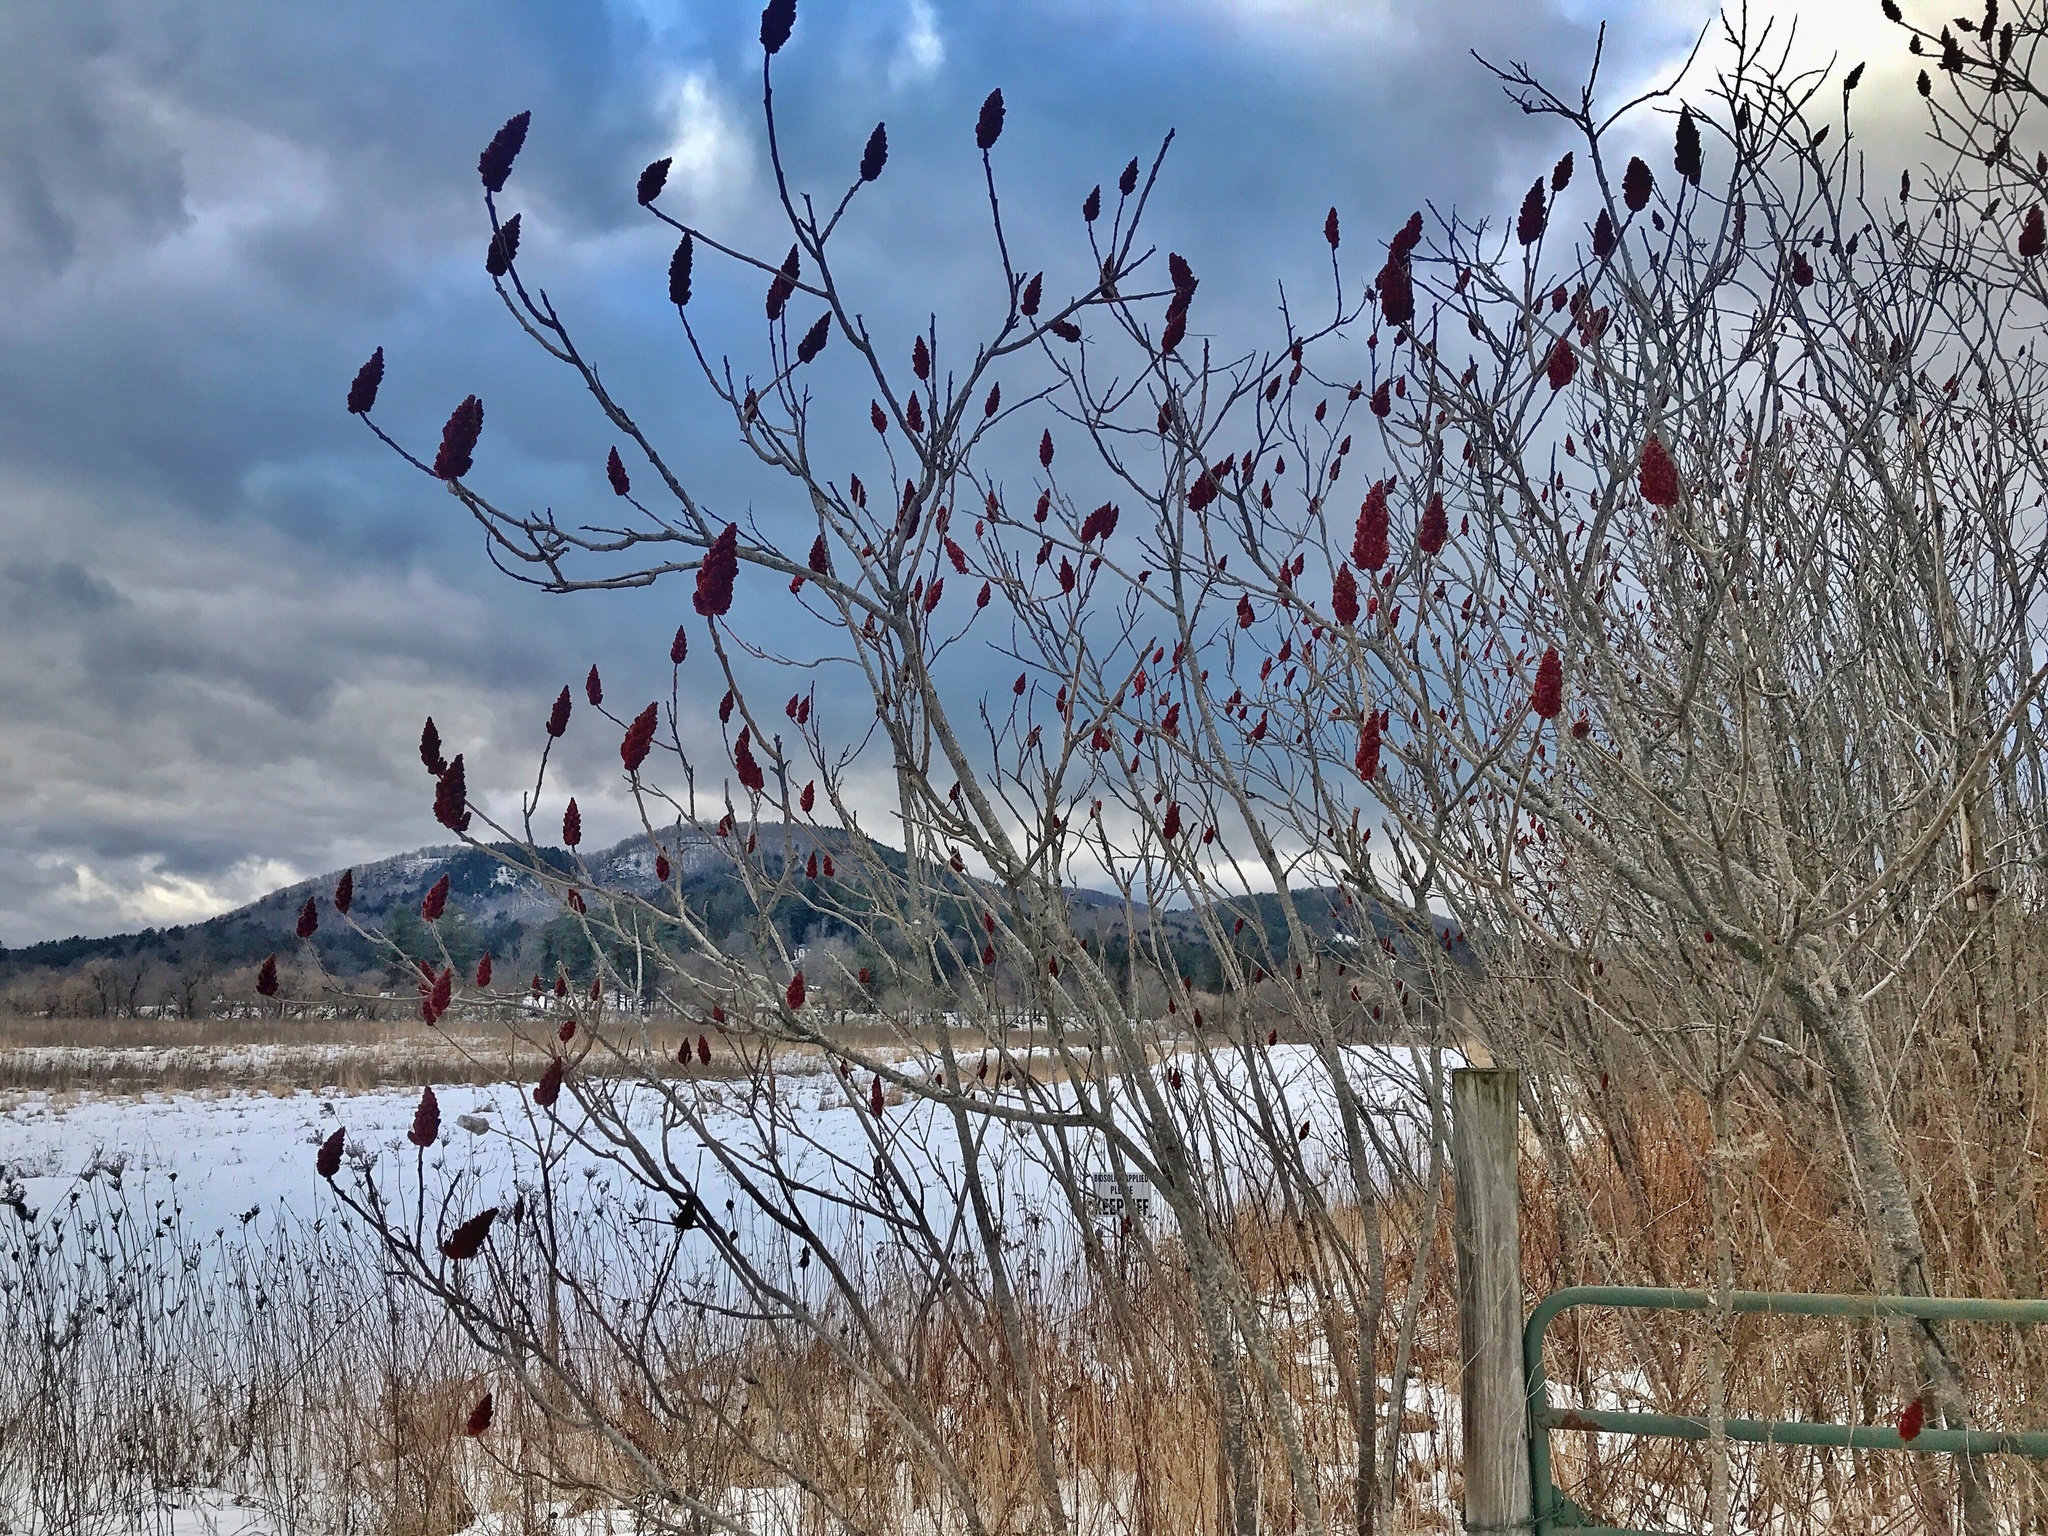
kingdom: Plantae
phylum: Tracheophyta
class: Magnoliopsida
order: Sapindales
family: Anacardiaceae
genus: Rhus
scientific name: Rhus typhina
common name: Staghorn sumac
